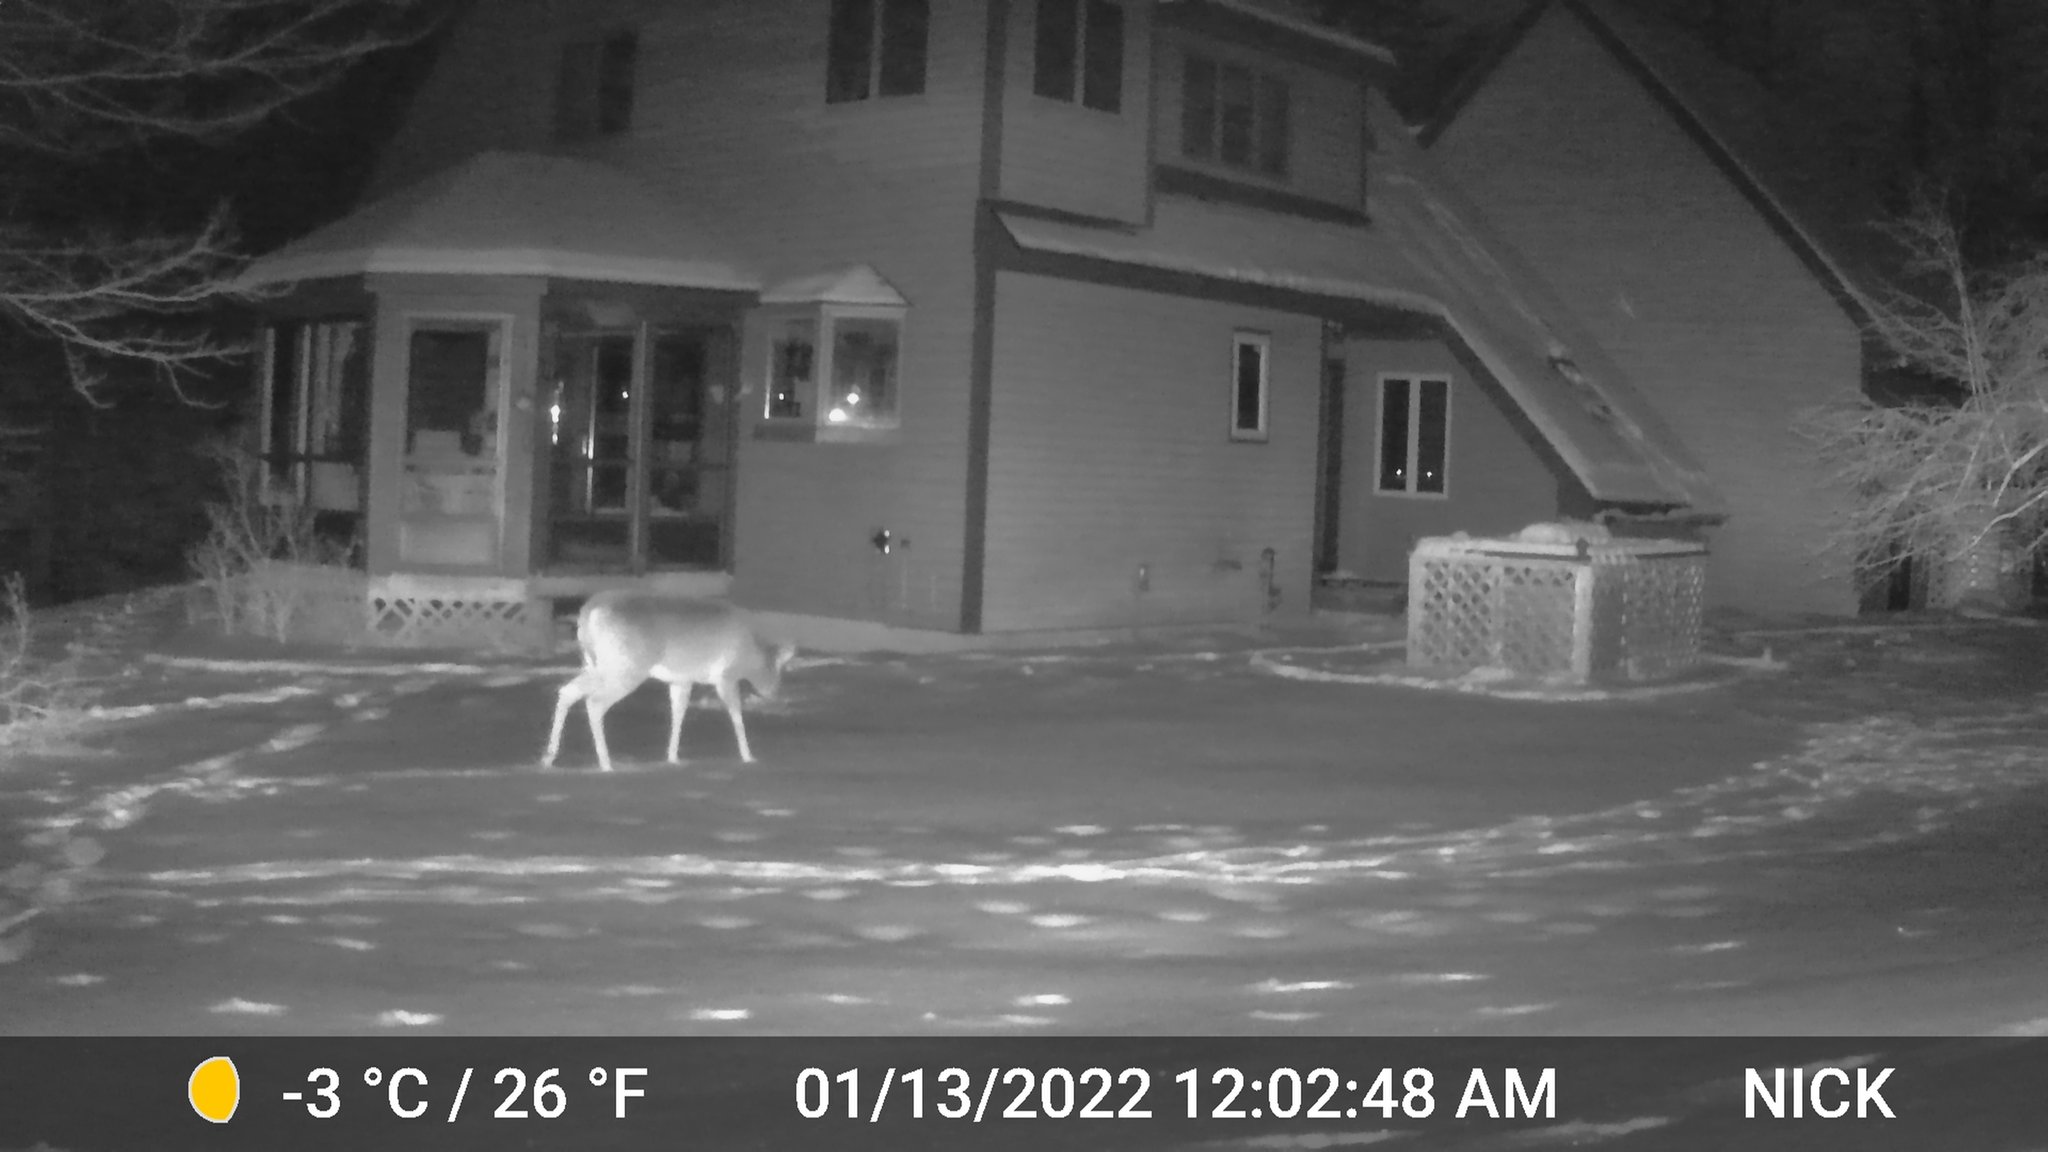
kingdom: Animalia
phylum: Chordata
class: Mammalia
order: Artiodactyla
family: Cervidae
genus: Odocoileus
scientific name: Odocoileus virginianus
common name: White-tailed deer
